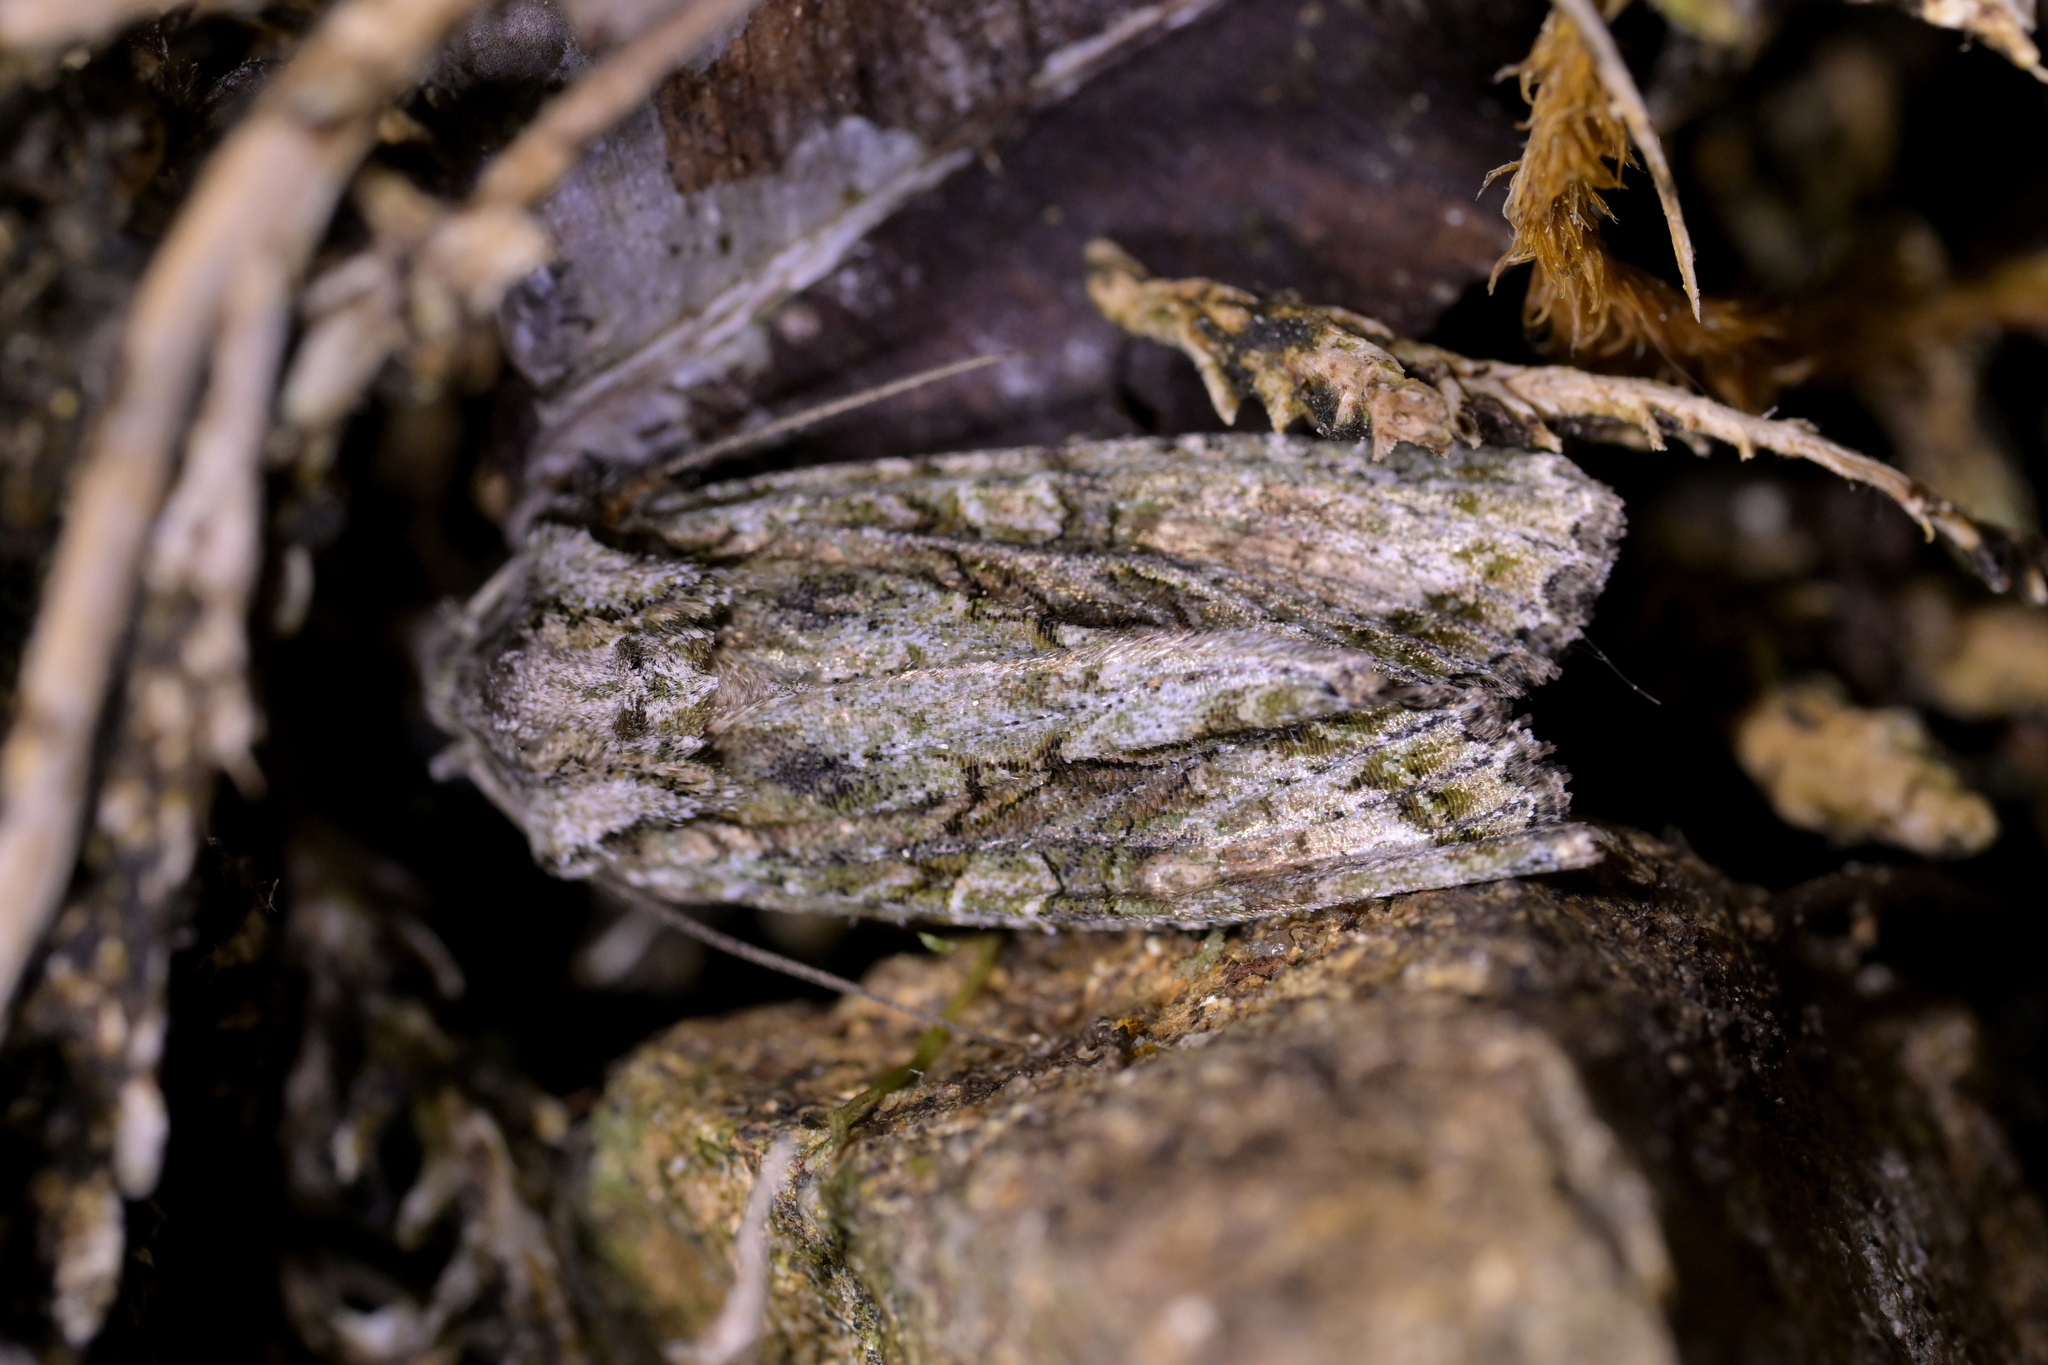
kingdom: Animalia
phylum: Arthropoda
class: Insecta
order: Lepidoptera
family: Noctuidae
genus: Ichneutica
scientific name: Ichneutica mutans
